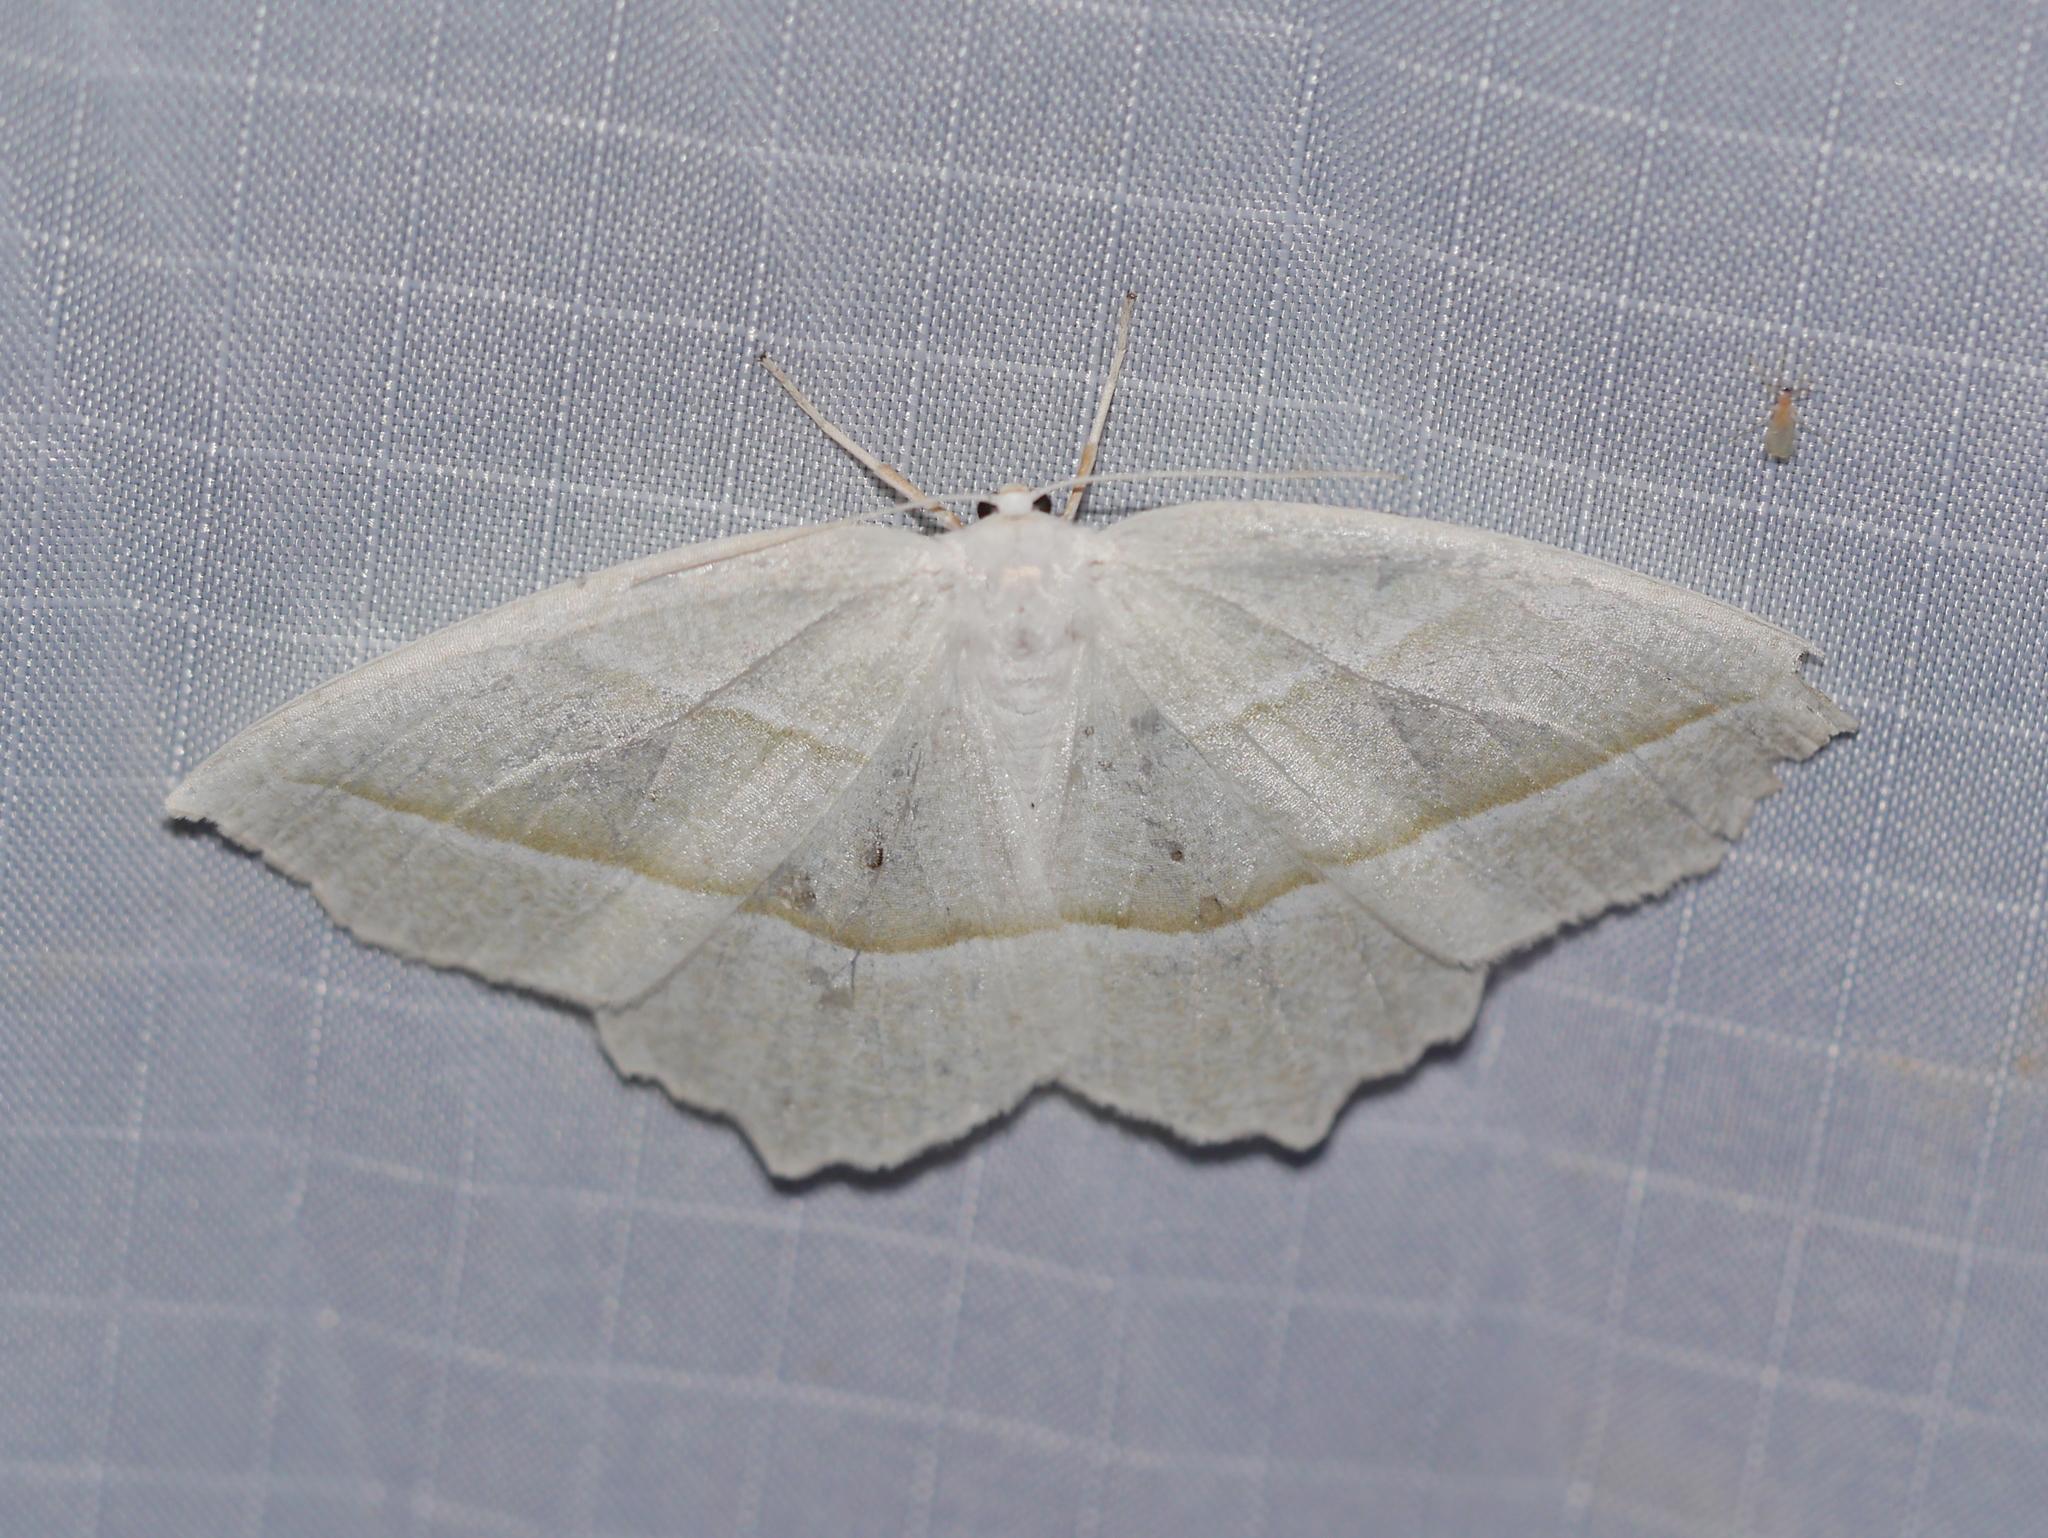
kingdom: Animalia
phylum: Arthropoda
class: Insecta
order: Lepidoptera
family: Geometridae
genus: Campaea
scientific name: Campaea perlata
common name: Fringed looper
